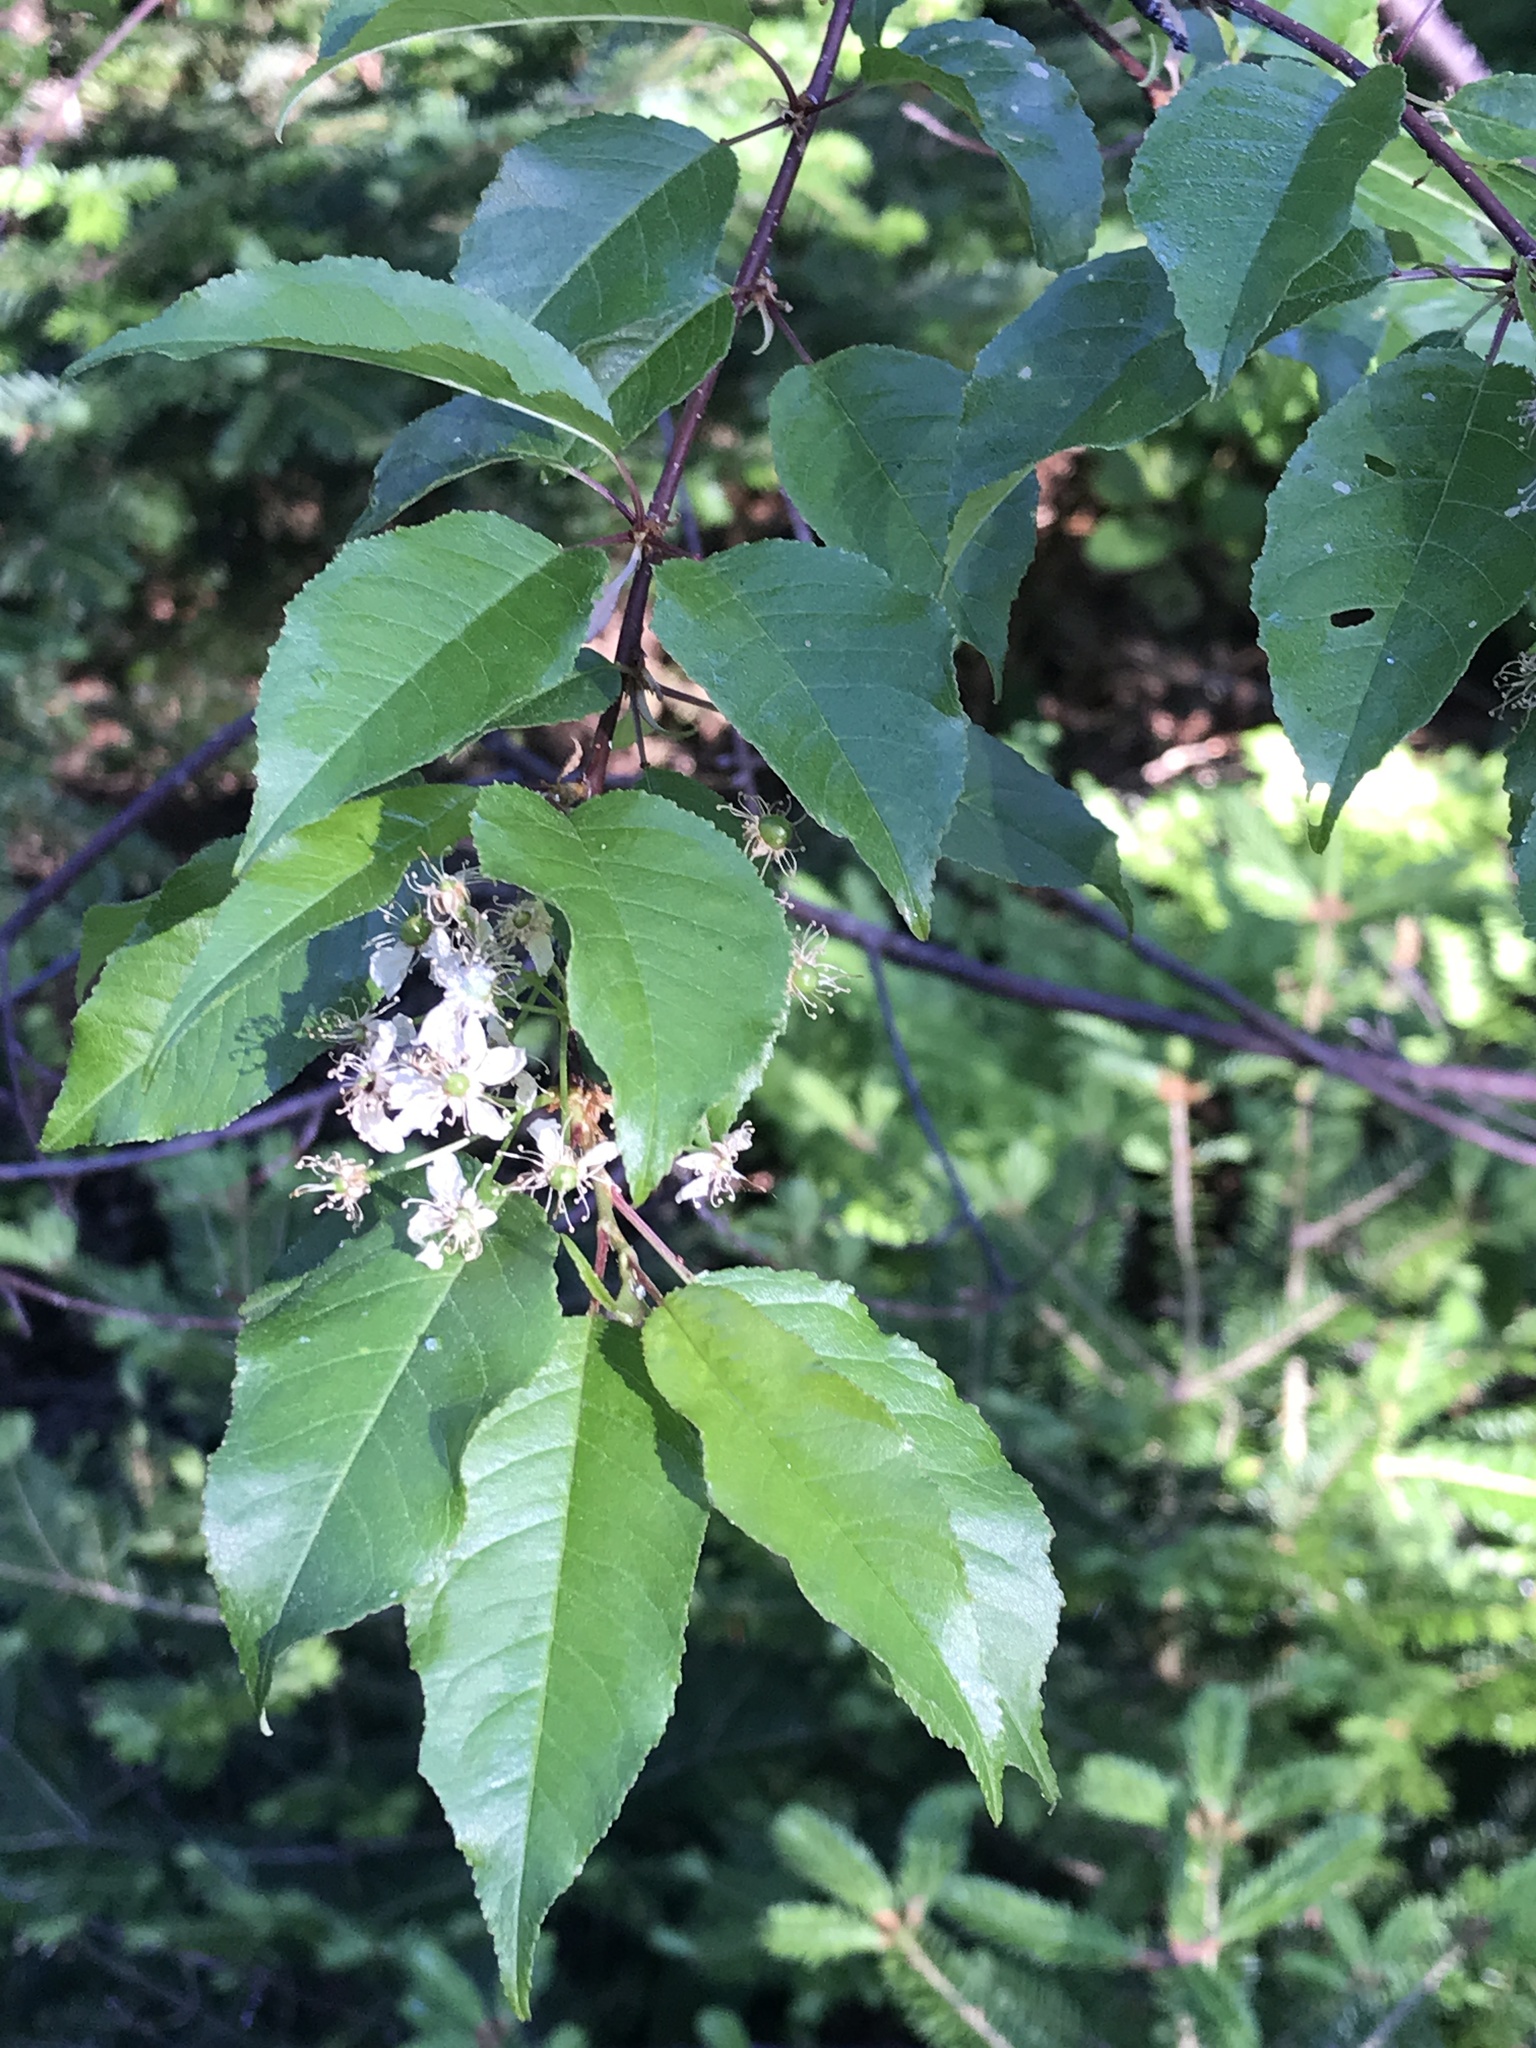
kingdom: Plantae
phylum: Tracheophyta
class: Magnoliopsida
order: Rosales
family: Rosaceae
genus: Prunus
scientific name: Prunus pensylvanica
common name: Pin cherry
